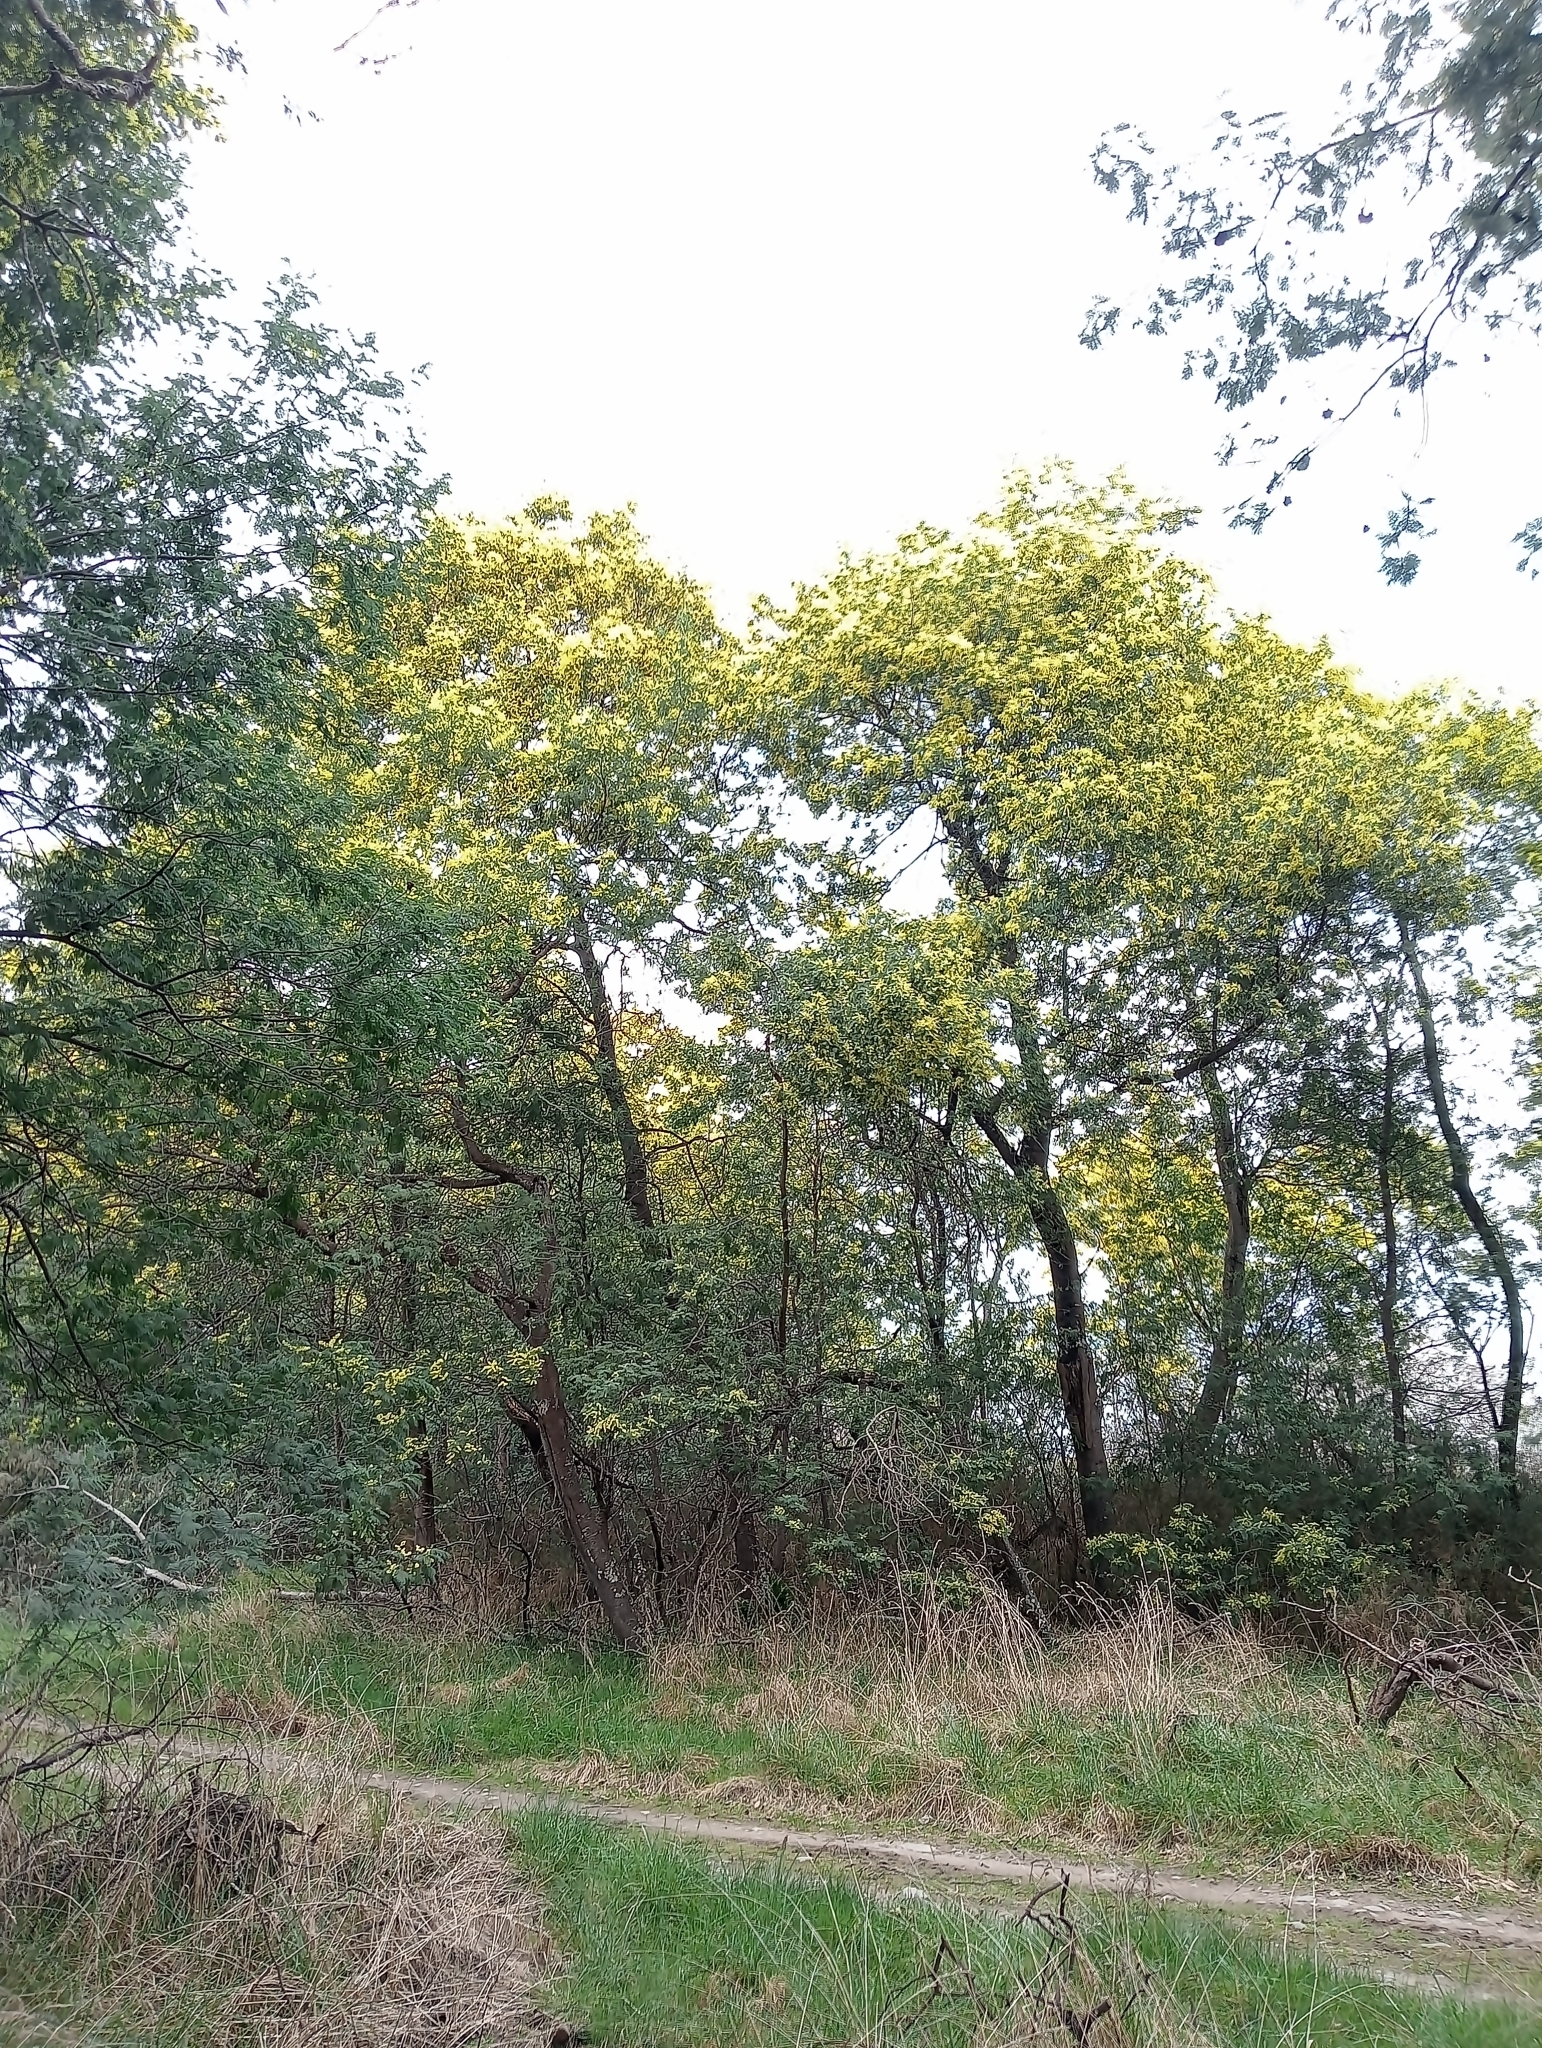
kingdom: Plantae
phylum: Tracheophyta
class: Magnoliopsida
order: Fabales
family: Fabaceae
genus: Acacia
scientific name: Acacia dealbata
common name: Silver wattle
